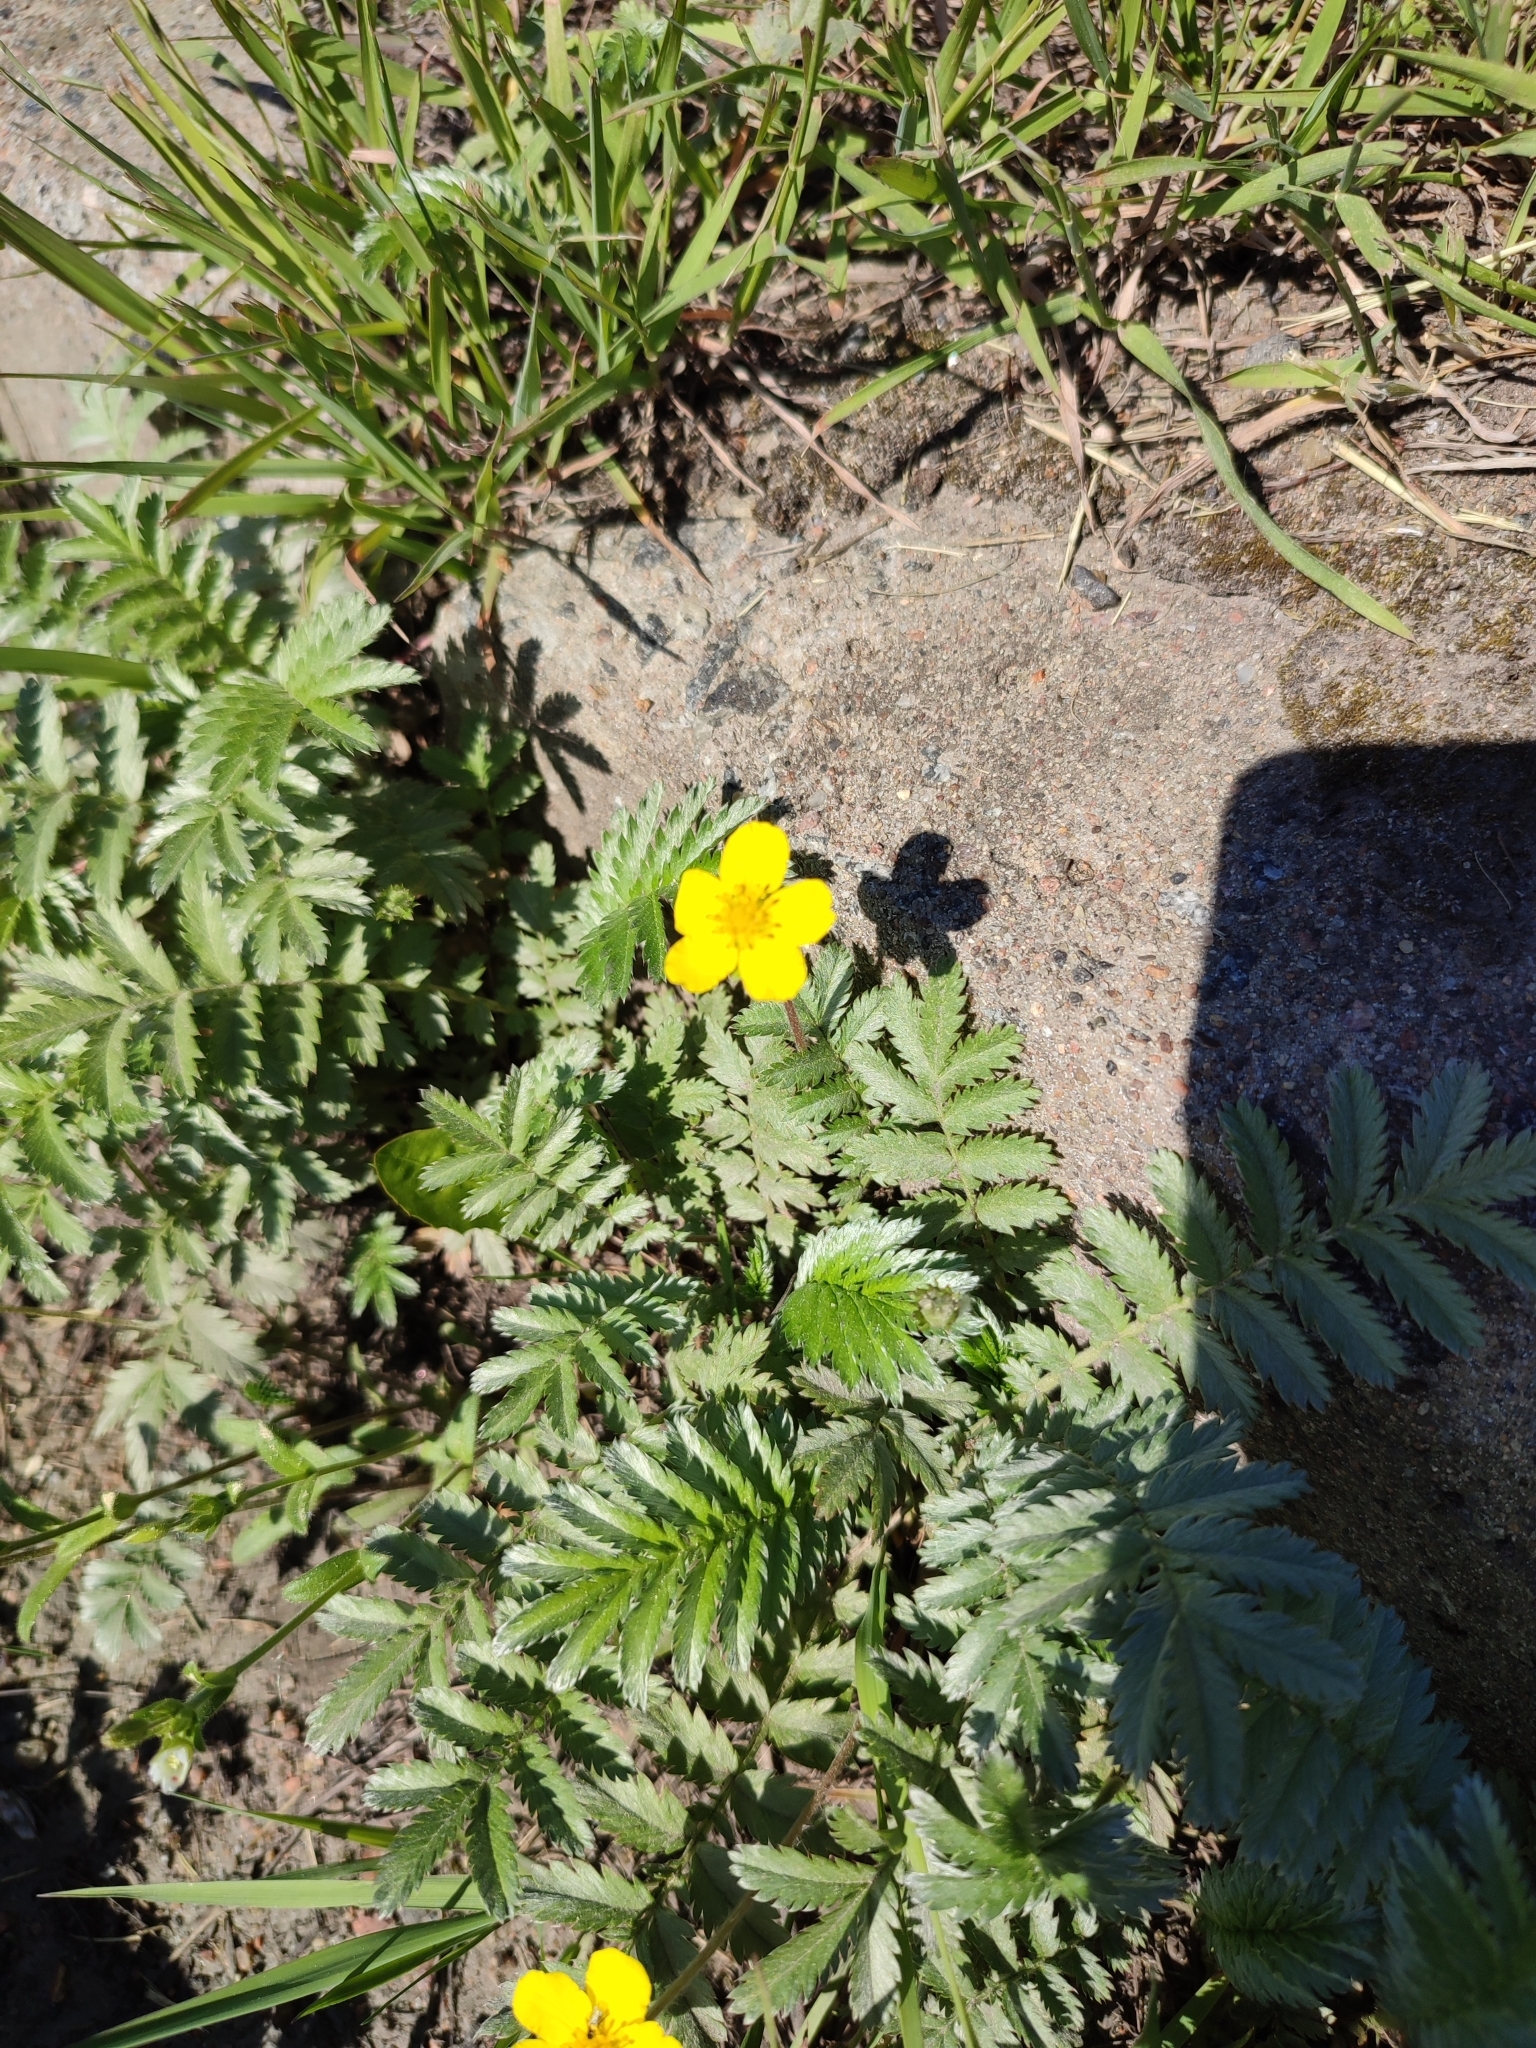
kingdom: Plantae
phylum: Tracheophyta
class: Magnoliopsida
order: Rosales
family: Rosaceae
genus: Argentina
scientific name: Argentina anserina
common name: Common silverweed
